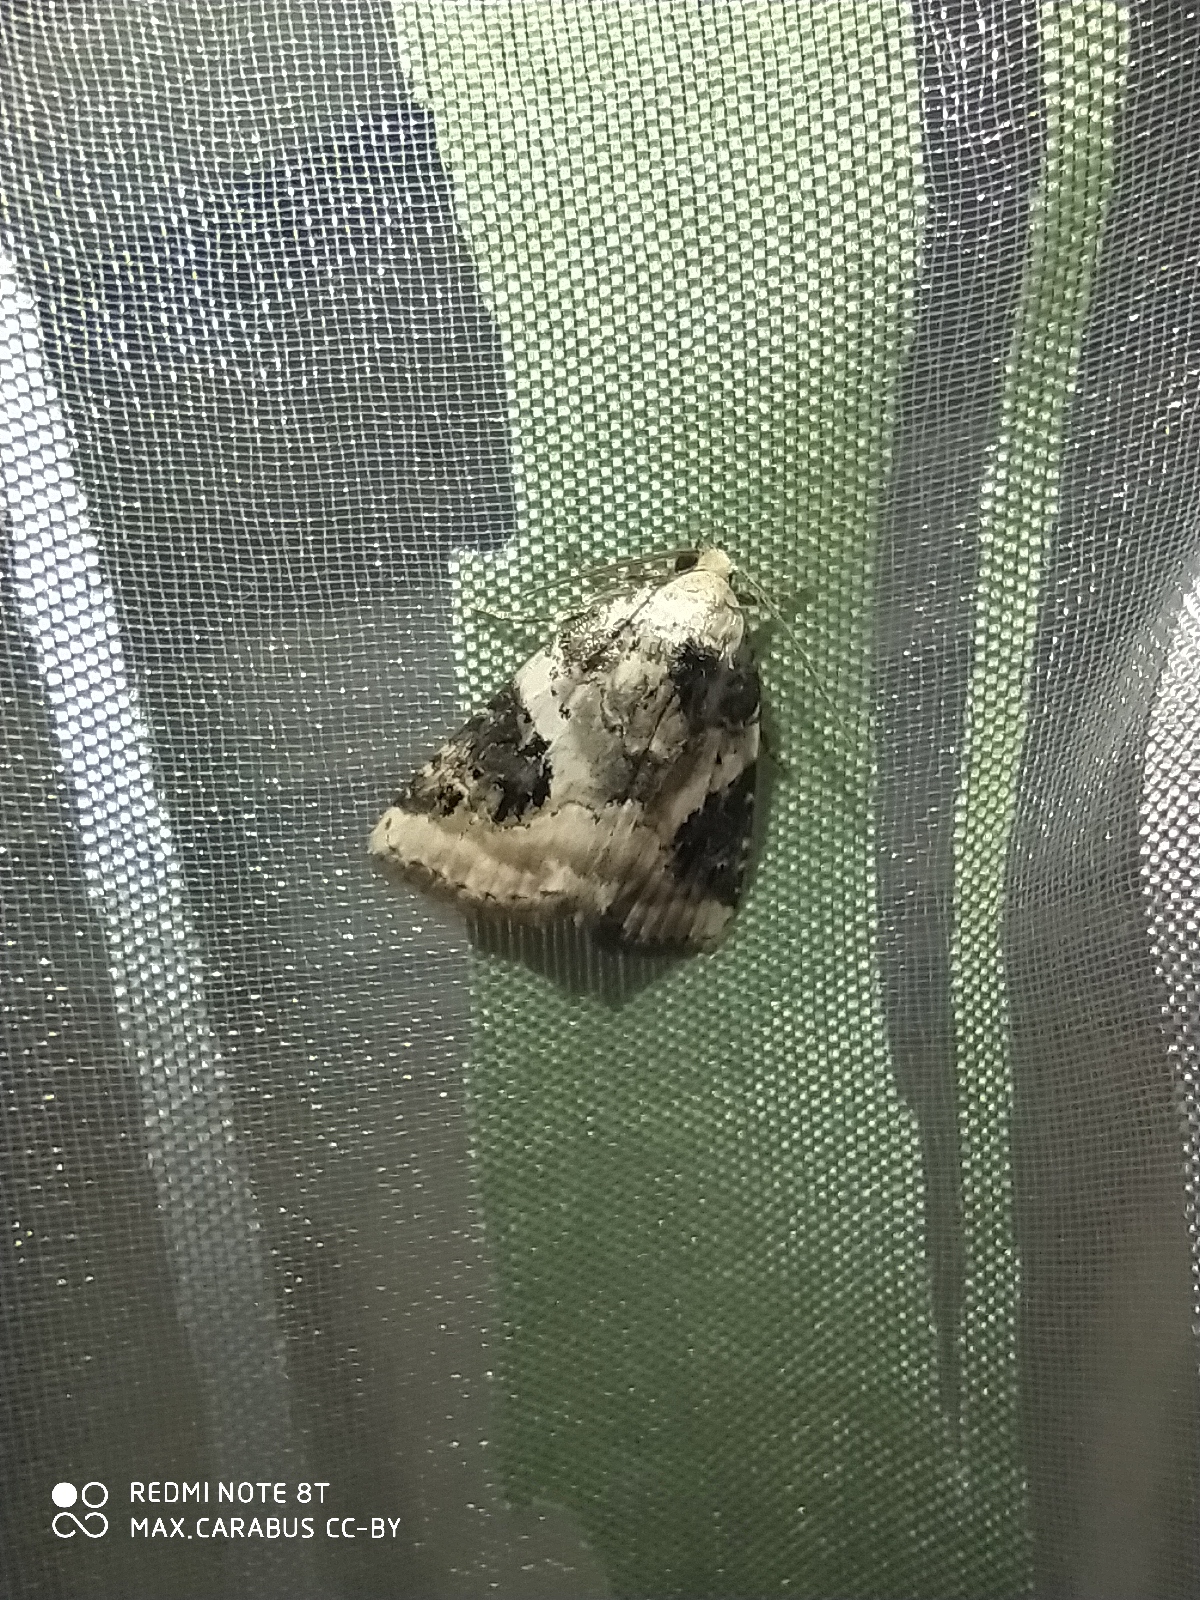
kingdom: Animalia
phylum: Arthropoda
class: Insecta
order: Lepidoptera
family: Noctuidae
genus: Pseudeustrotia
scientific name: Pseudeustrotia candidula
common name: Shining marbled
